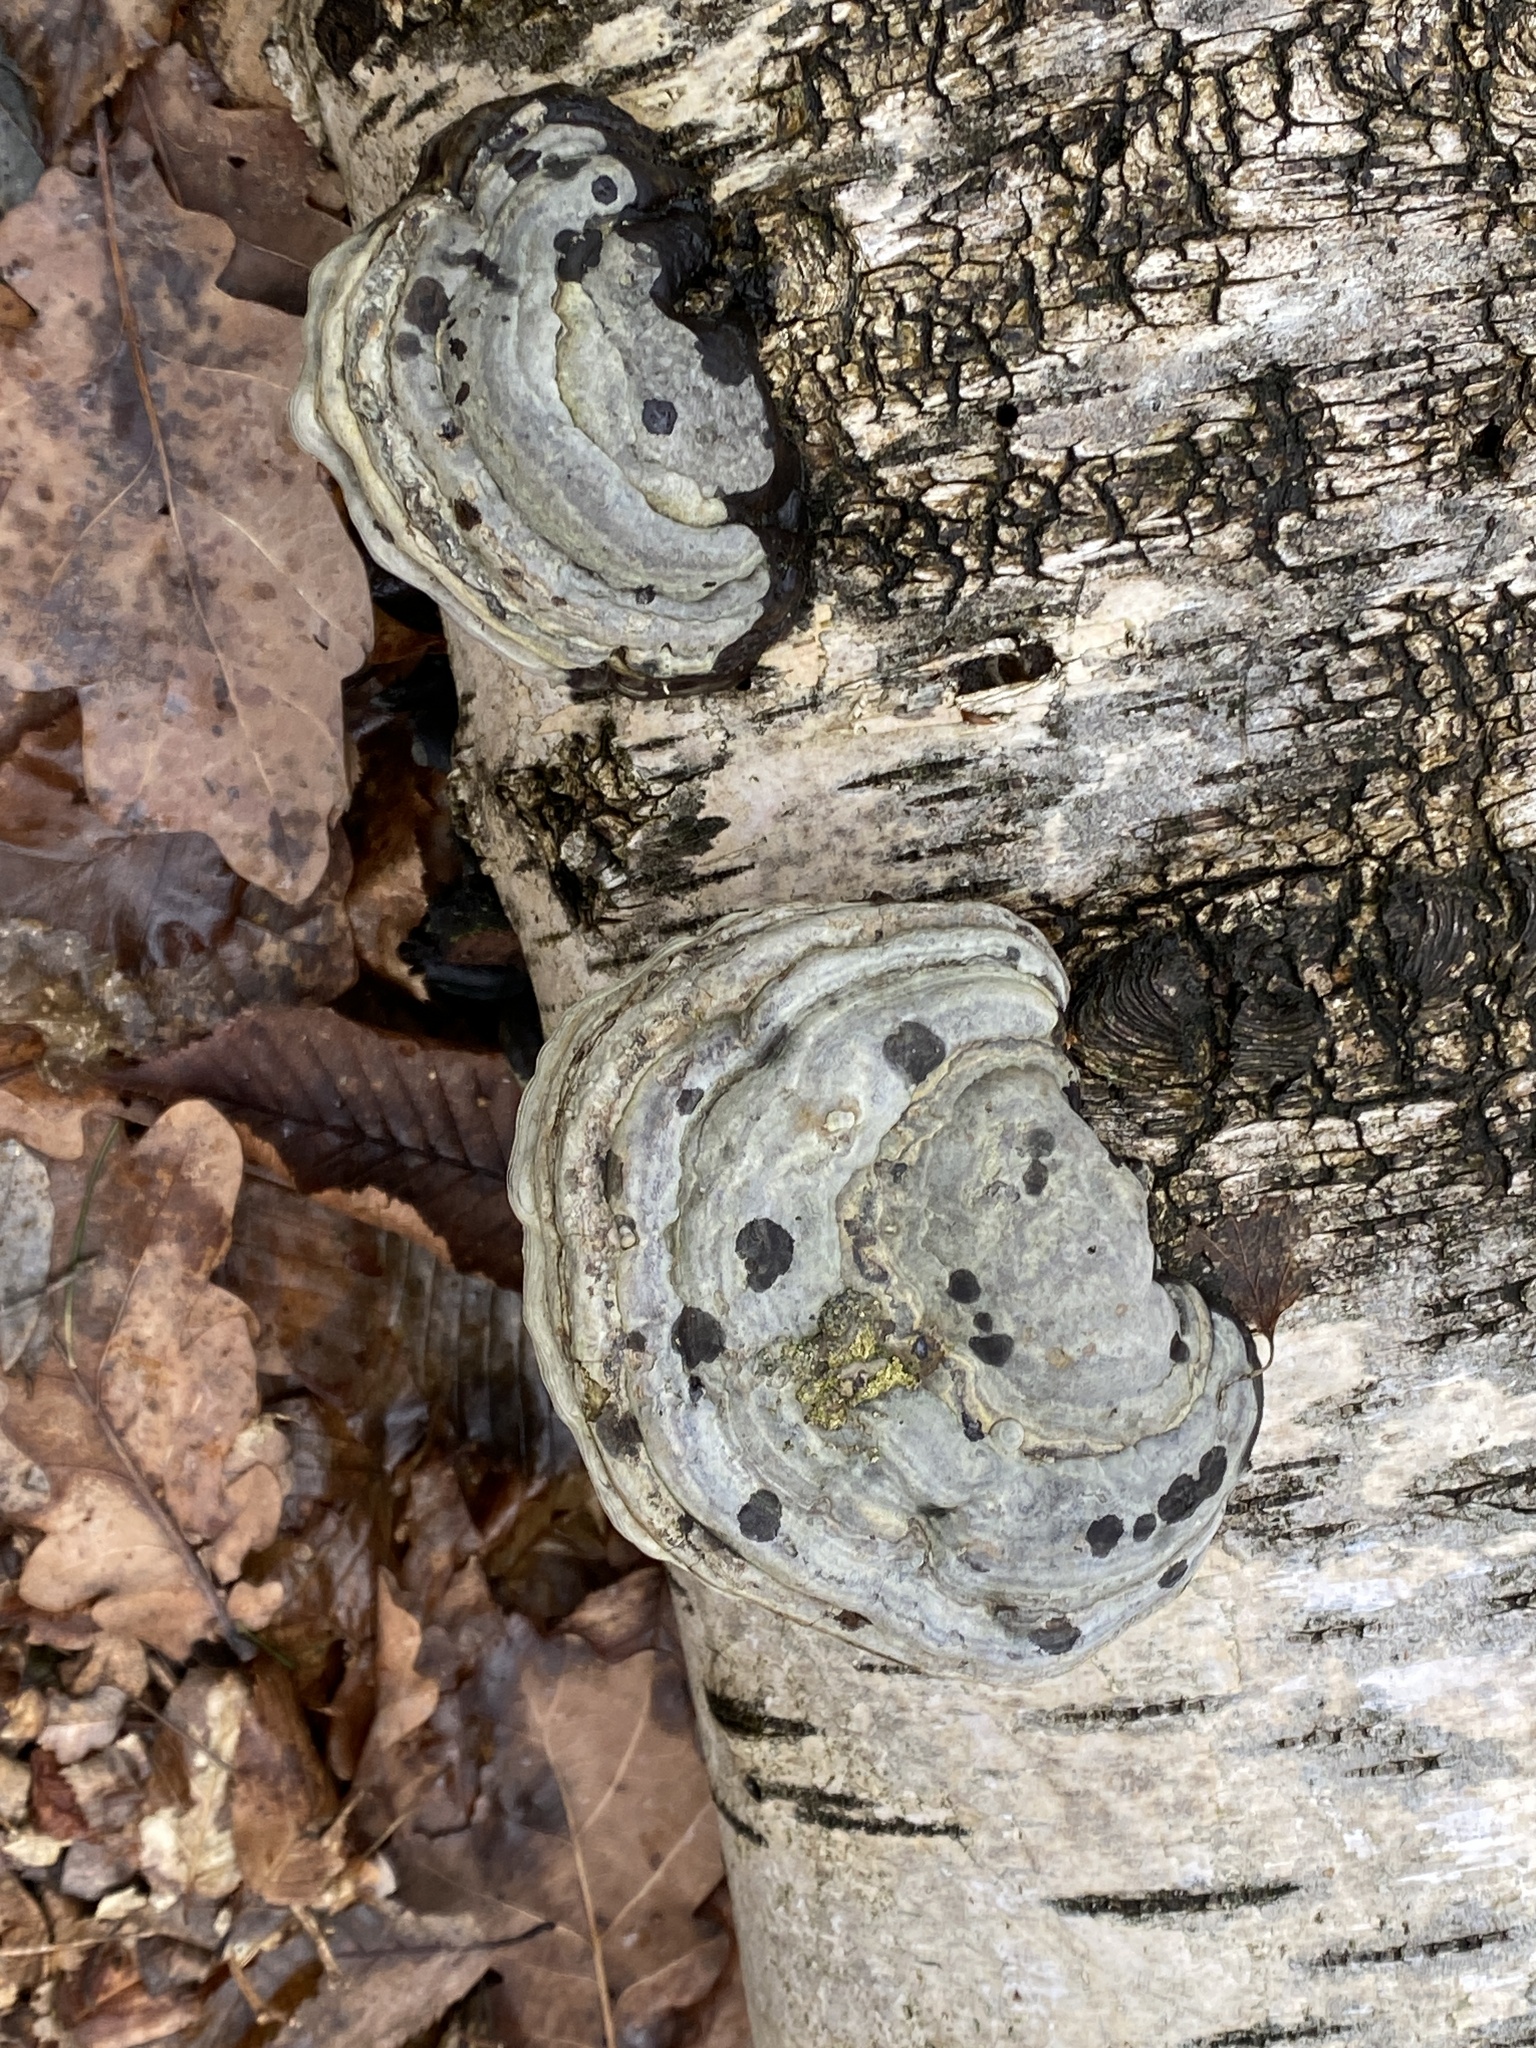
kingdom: Fungi
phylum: Basidiomycota
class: Agaricomycetes
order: Polyporales
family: Polyporaceae
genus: Fomes
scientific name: Fomes fomentarius
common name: Hoof fungus
